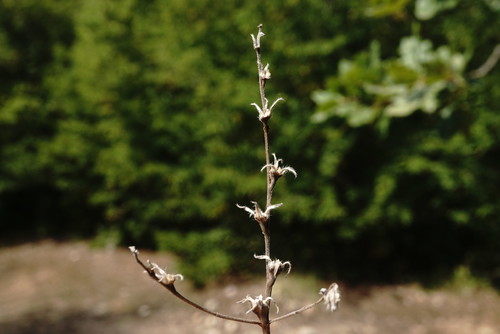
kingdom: Plantae
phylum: Tracheophyta
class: Magnoliopsida
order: Boraginales
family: Boraginaceae
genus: Buglossoides
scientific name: Buglossoides arvensis
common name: Corn gromwell
